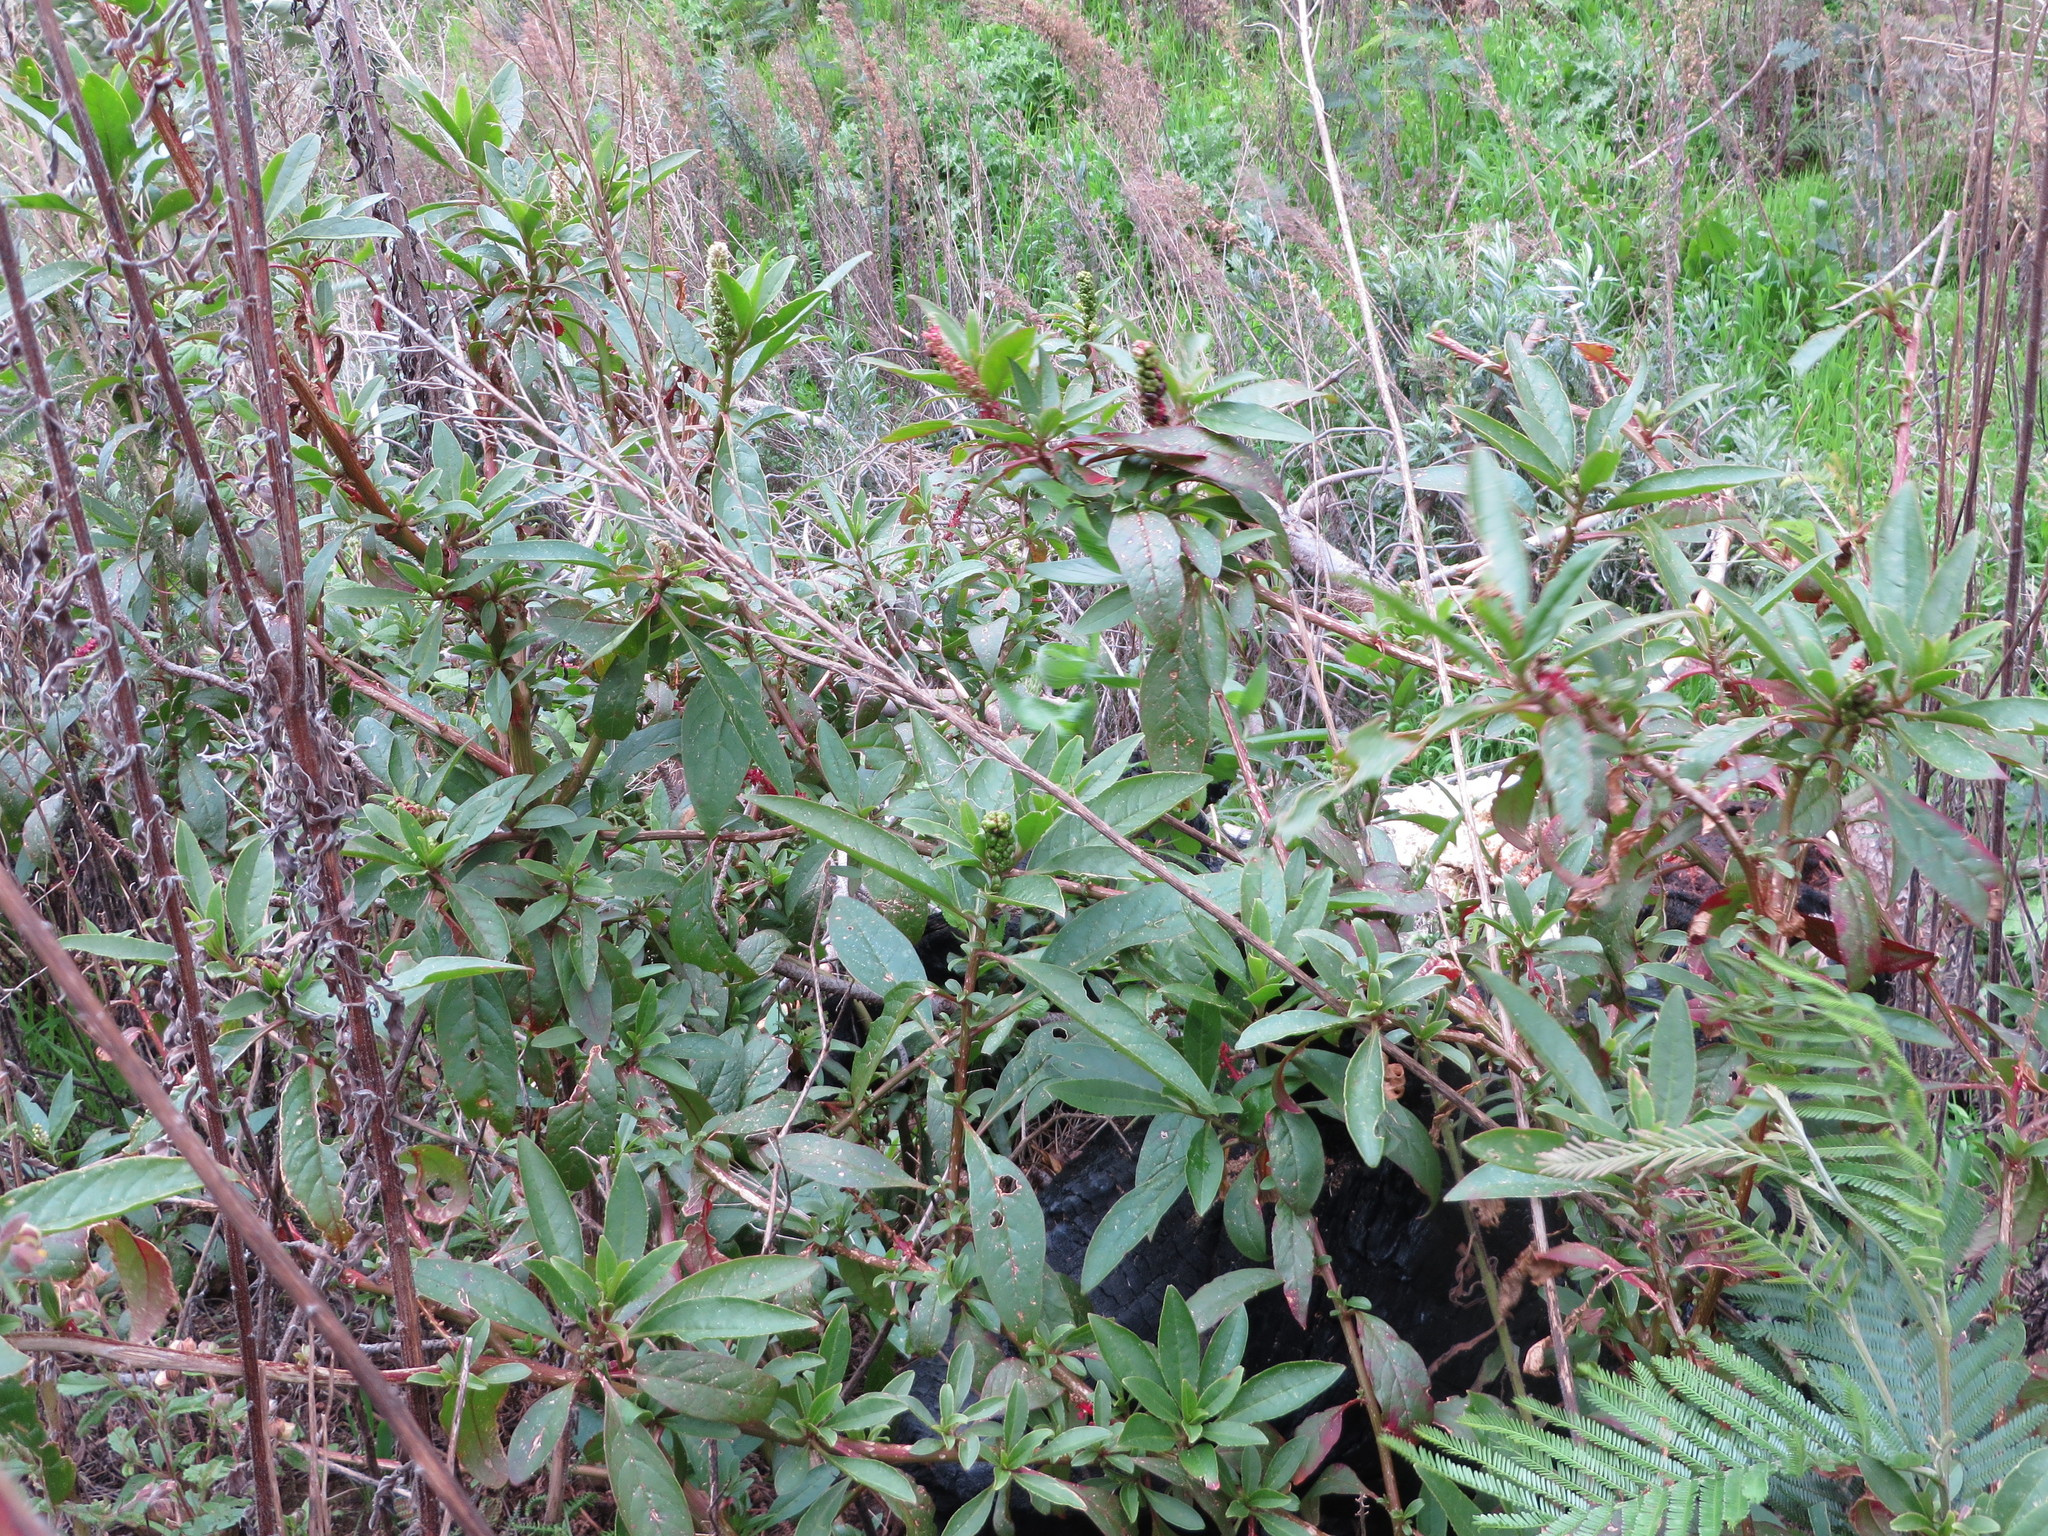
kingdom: Plantae
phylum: Tracheophyta
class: Magnoliopsida
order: Caryophyllales
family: Phytolaccaceae
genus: Phytolacca
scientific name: Phytolacca icosandra
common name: Button pokeweed
